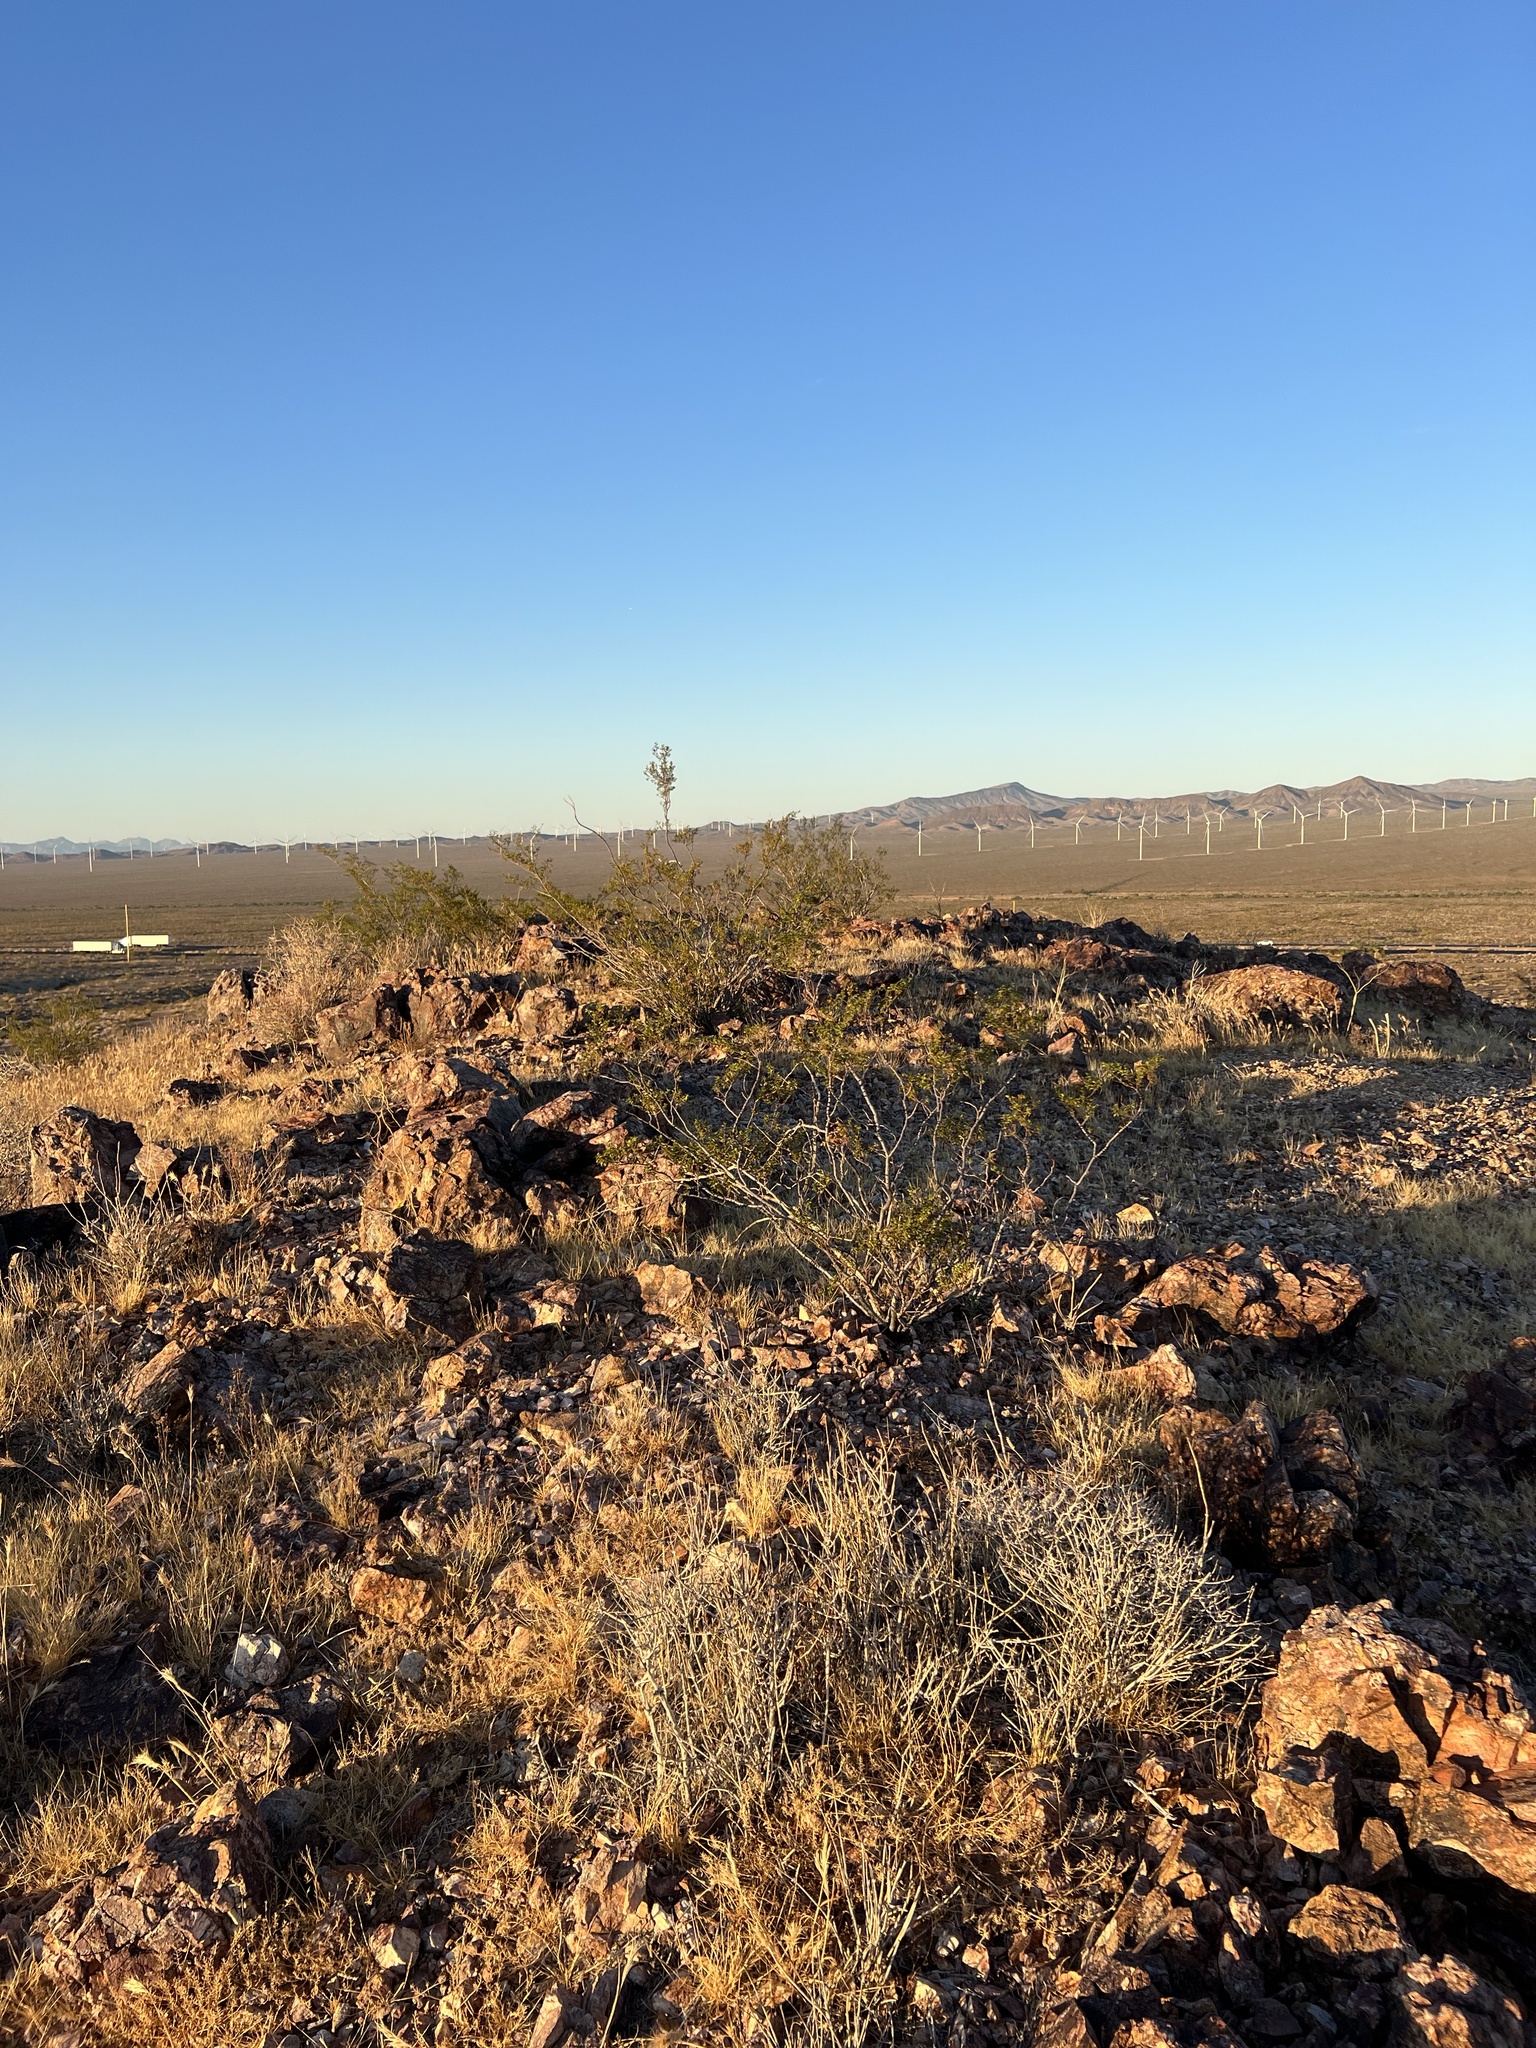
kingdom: Plantae
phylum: Tracheophyta
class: Magnoliopsida
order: Zygophyllales
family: Zygophyllaceae
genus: Larrea
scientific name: Larrea tridentata
